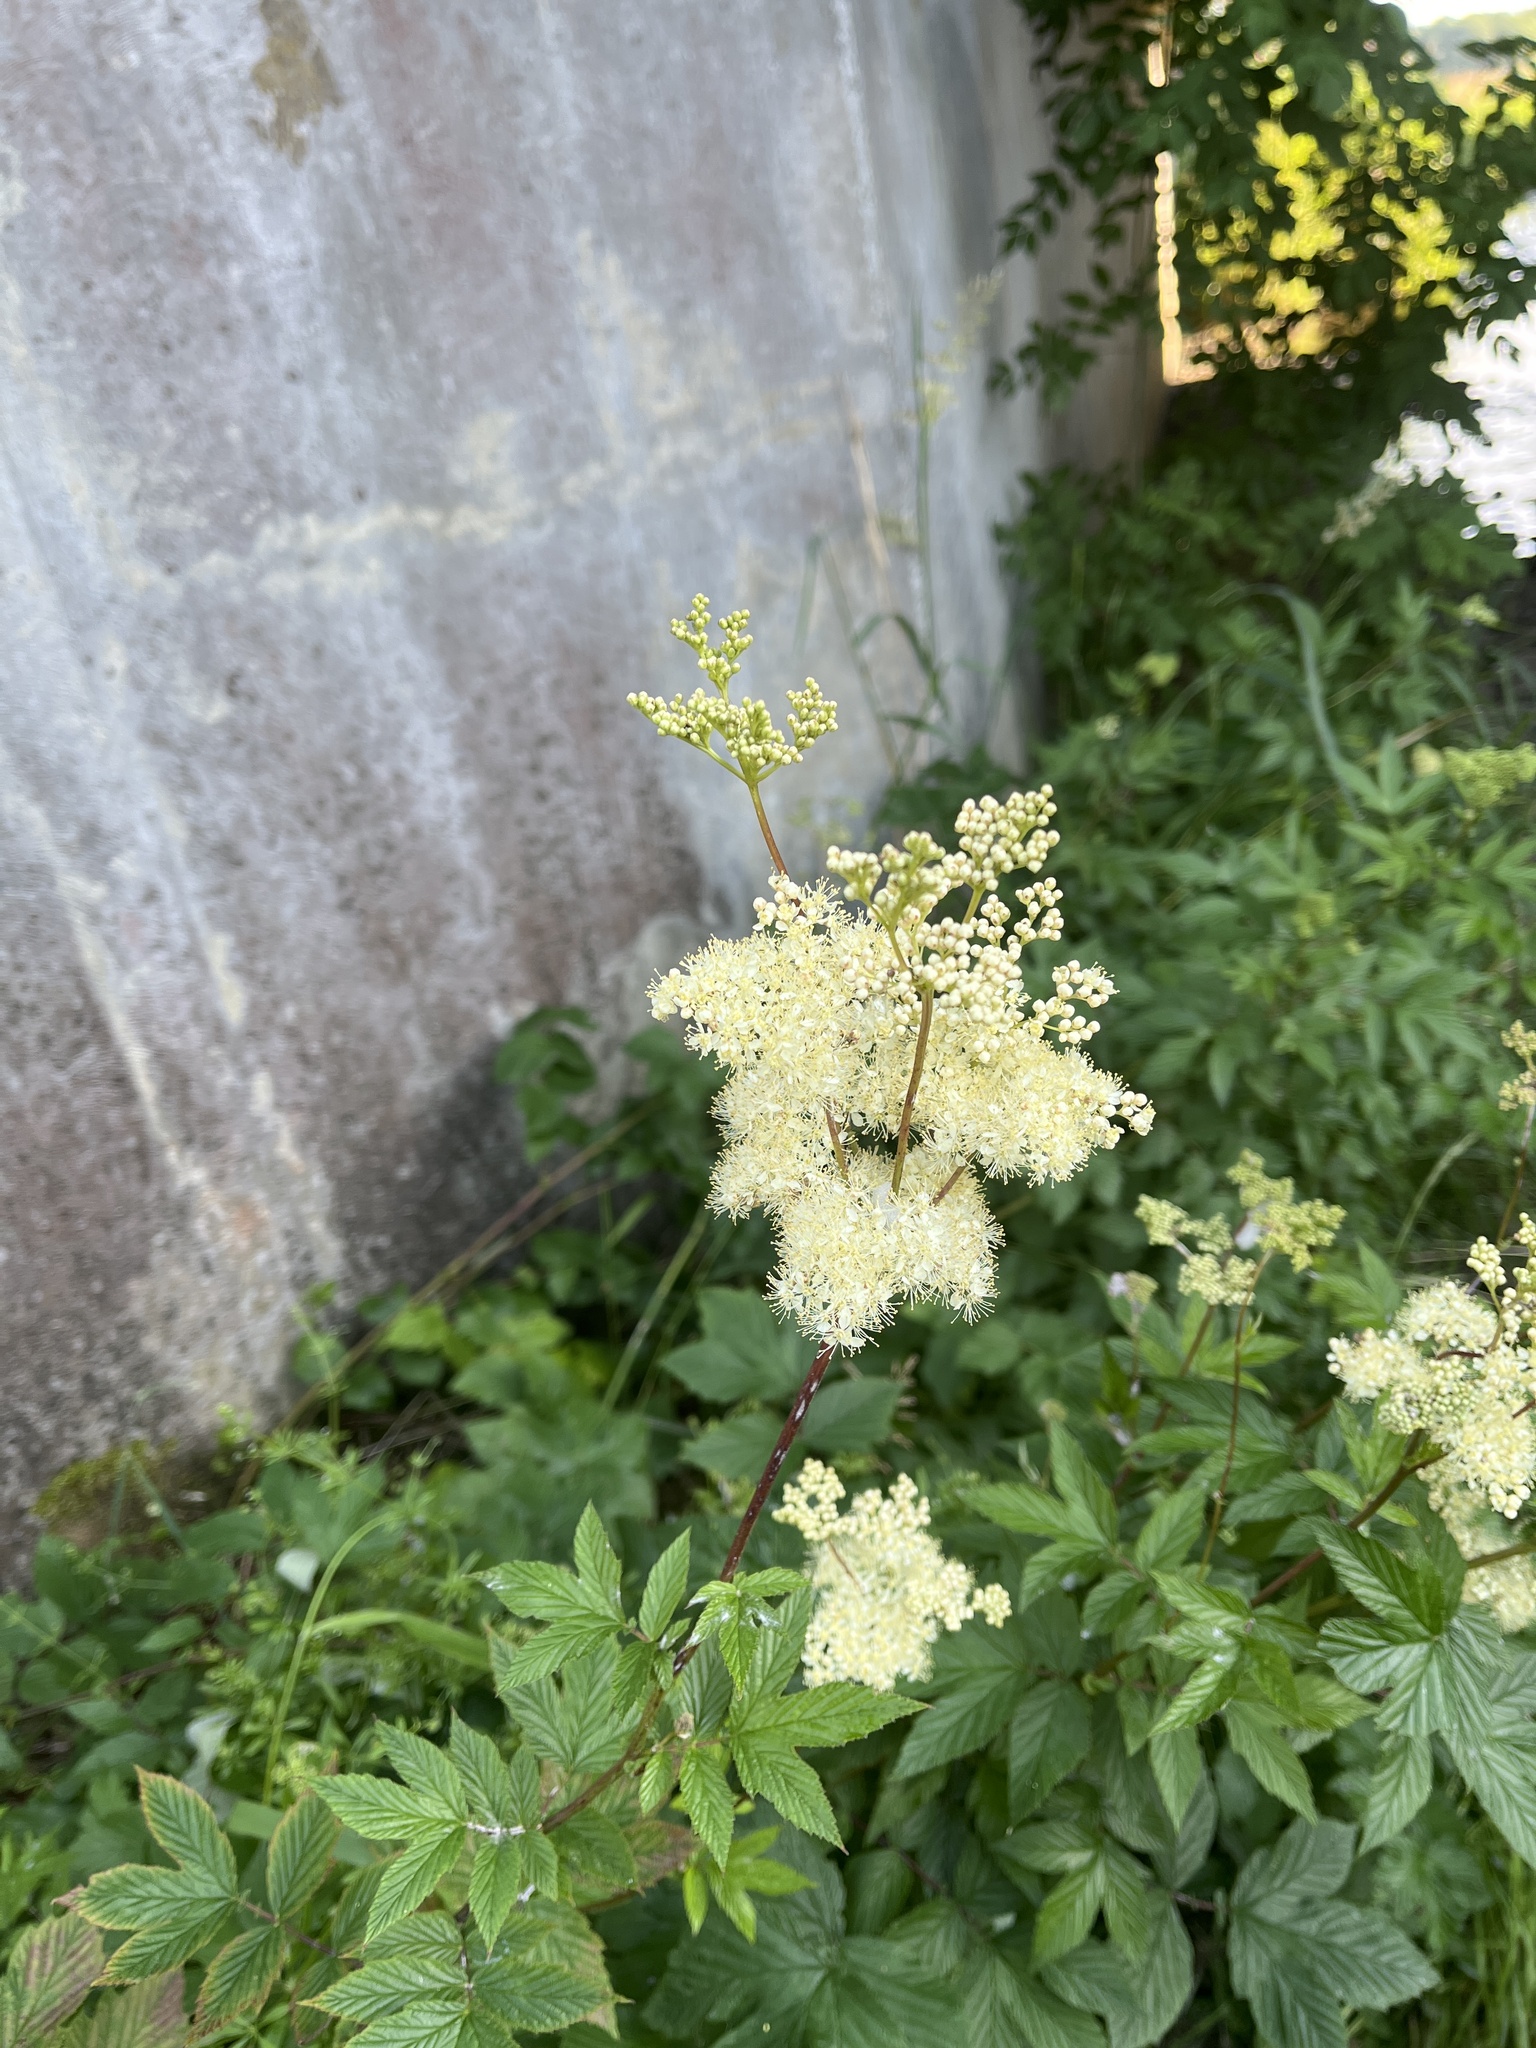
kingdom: Plantae
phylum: Tracheophyta
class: Magnoliopsida
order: Rosales
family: Rosaceae
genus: Filipendula
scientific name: Filipendula ulmaria
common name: Meadowsweet
